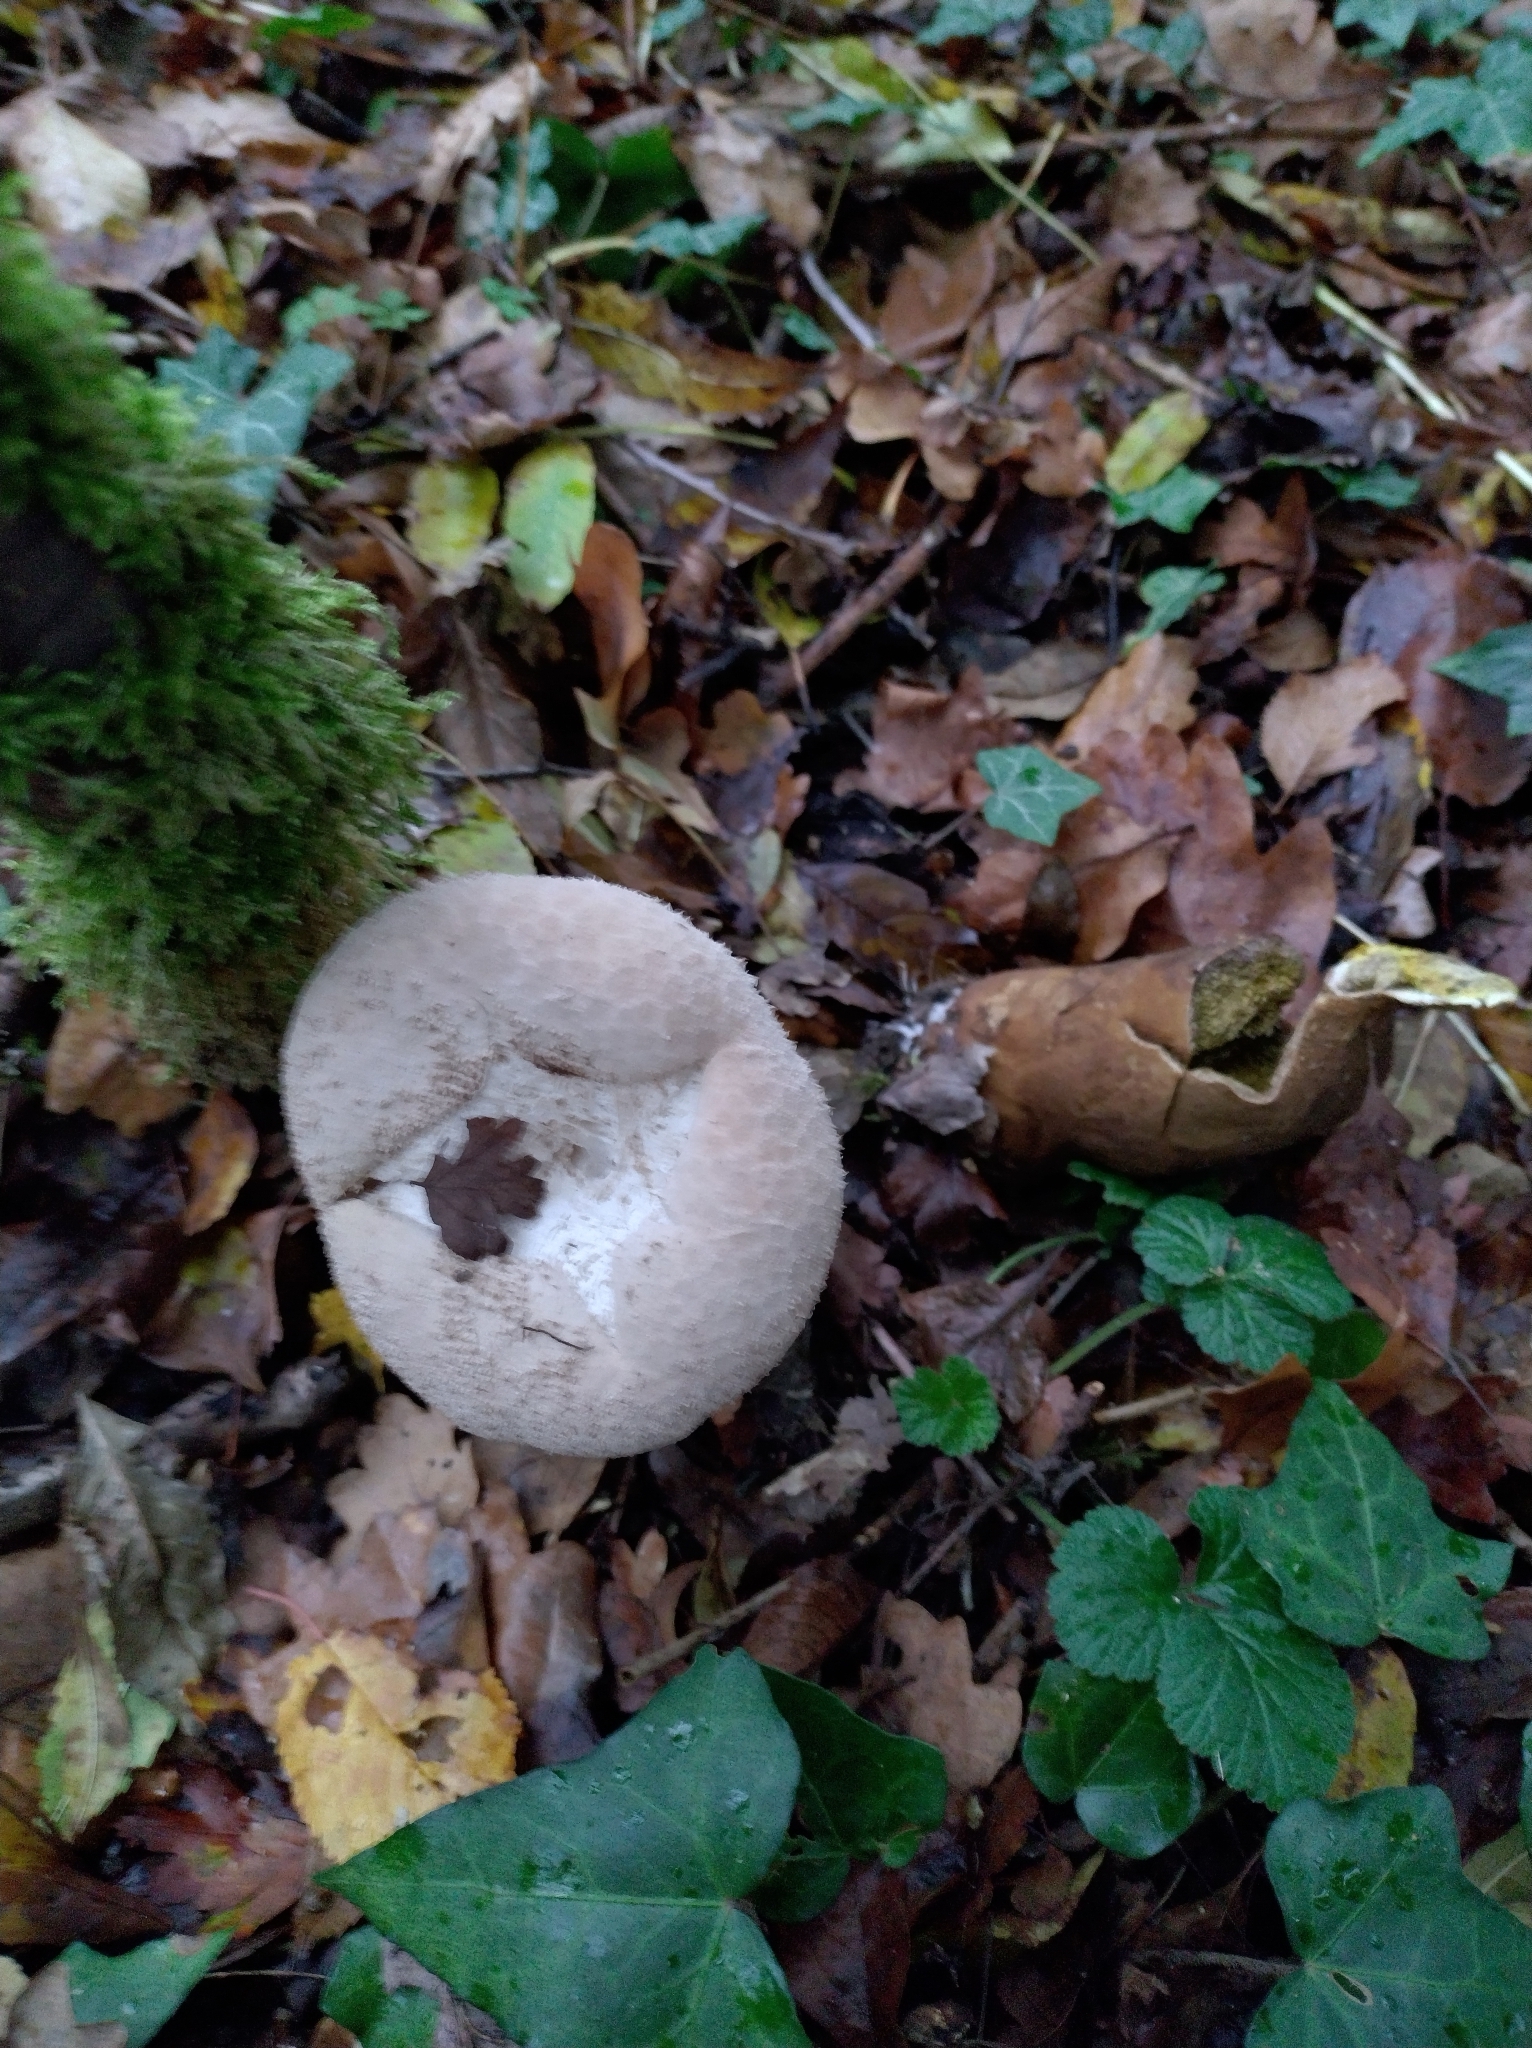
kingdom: Fungi
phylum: Basidiomycota
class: Agaricomycetes
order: Agaricales
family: Lycoperdaceae
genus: Lycoperdon
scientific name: Lycoperdon excipuliforme
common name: Pestle puffball
